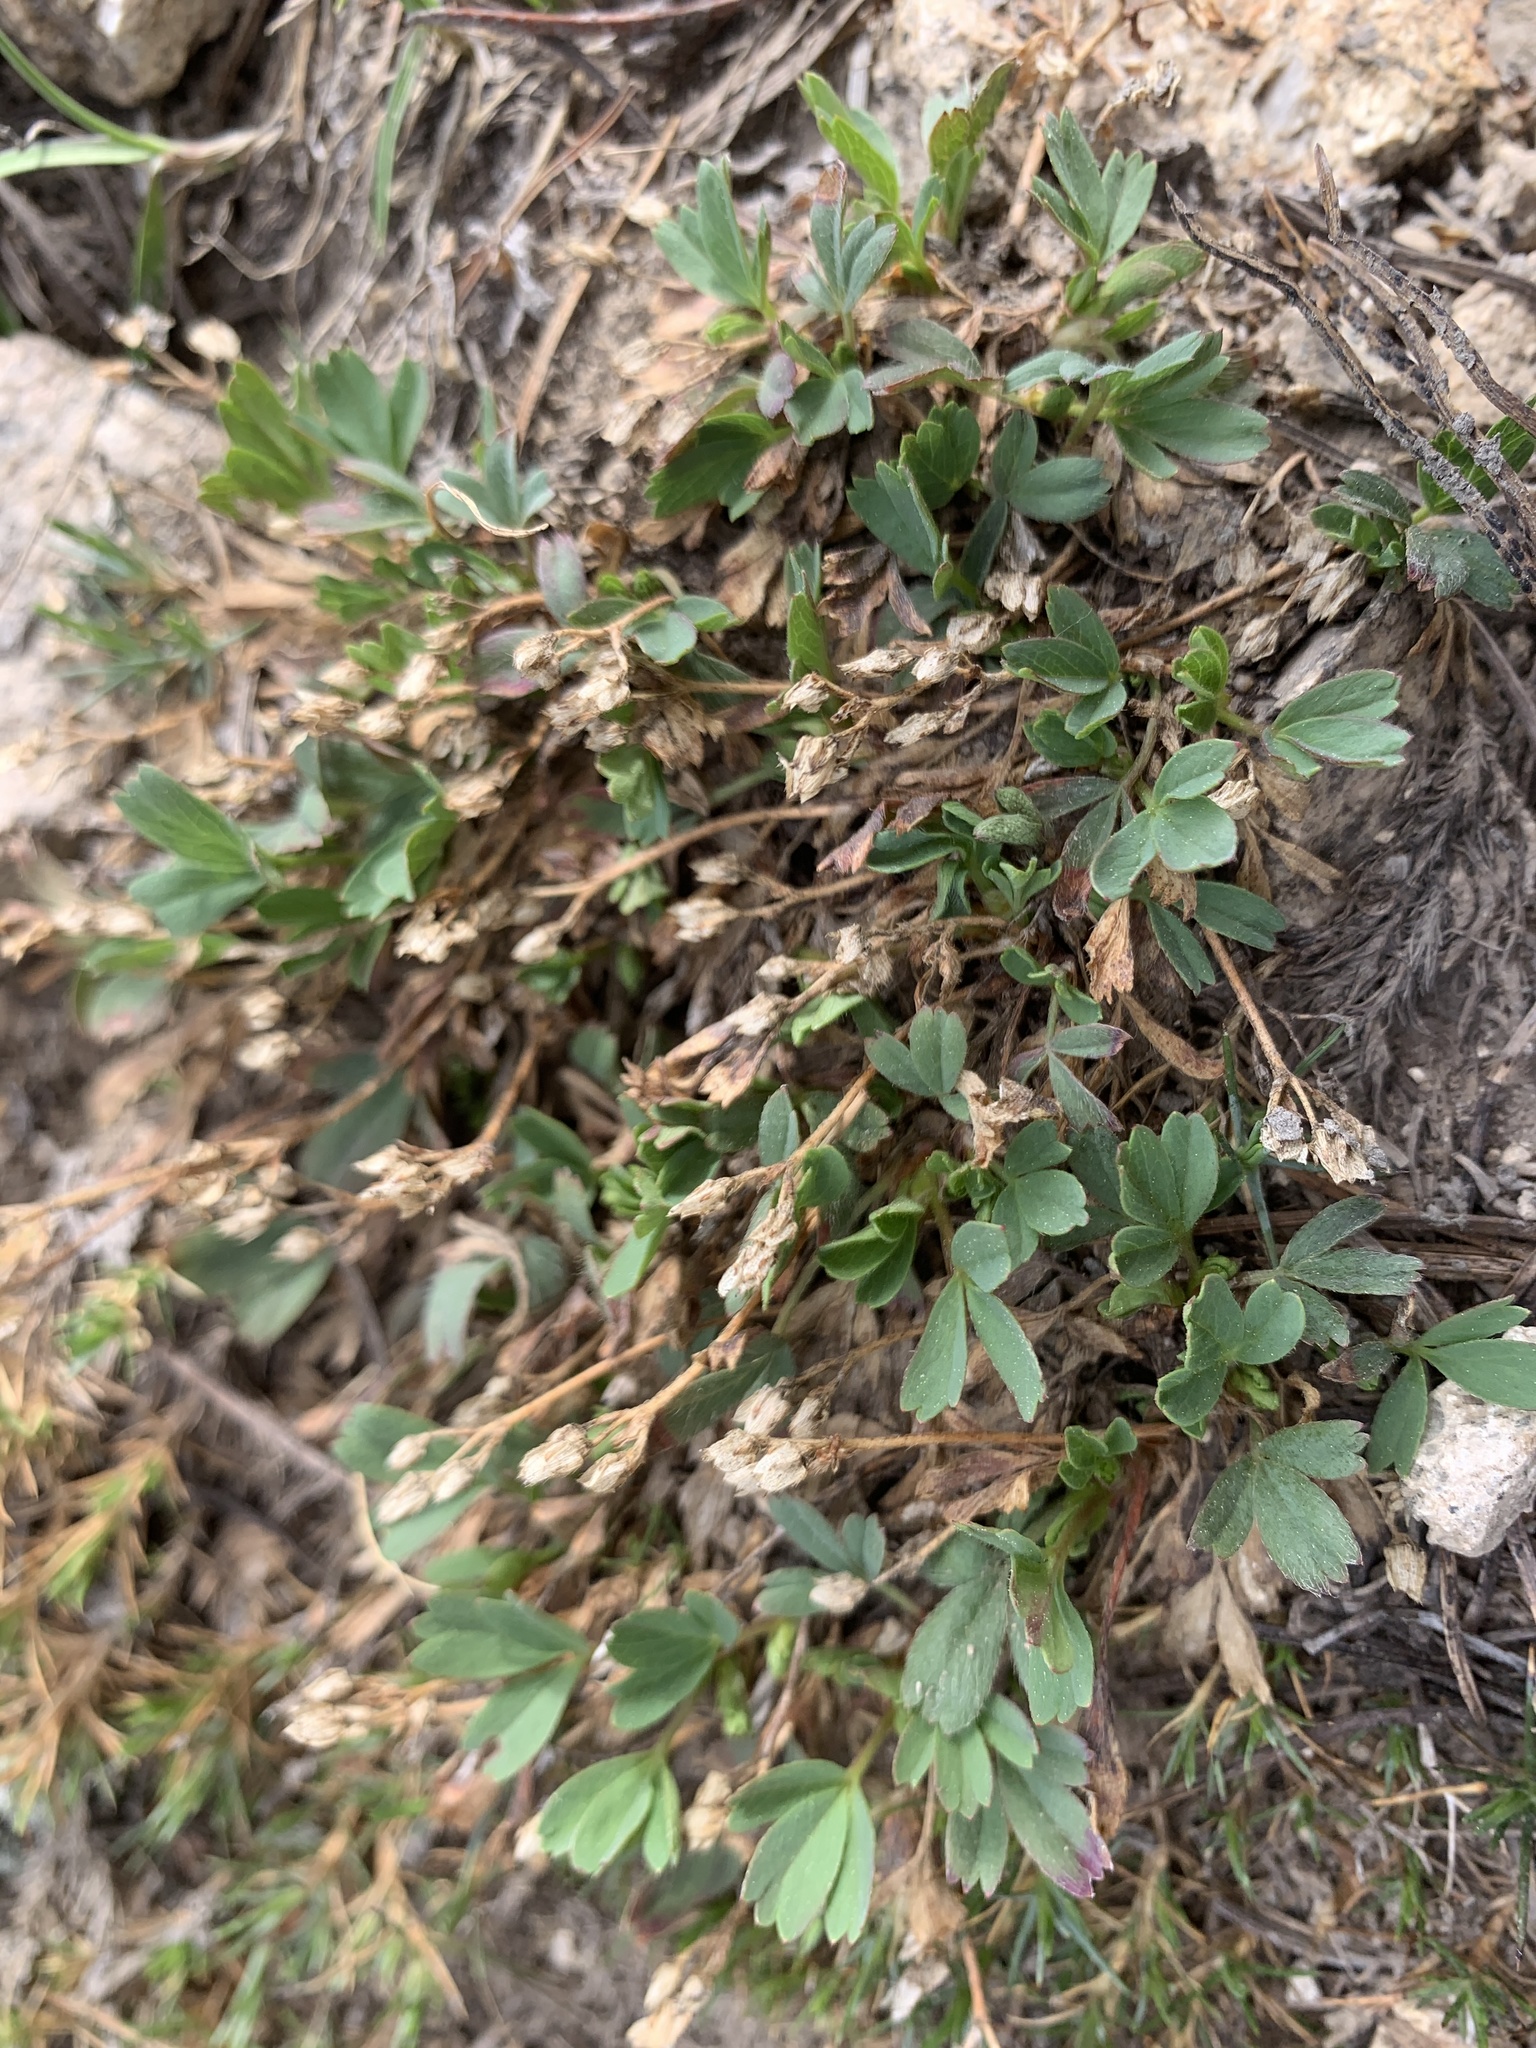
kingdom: Plantae
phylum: Tracheophyta
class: Magnoliopsida
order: Rosales
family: Rosaceae
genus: Sibbaldia
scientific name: Sibbaldia procumbens
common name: Creeping sibbaldia
